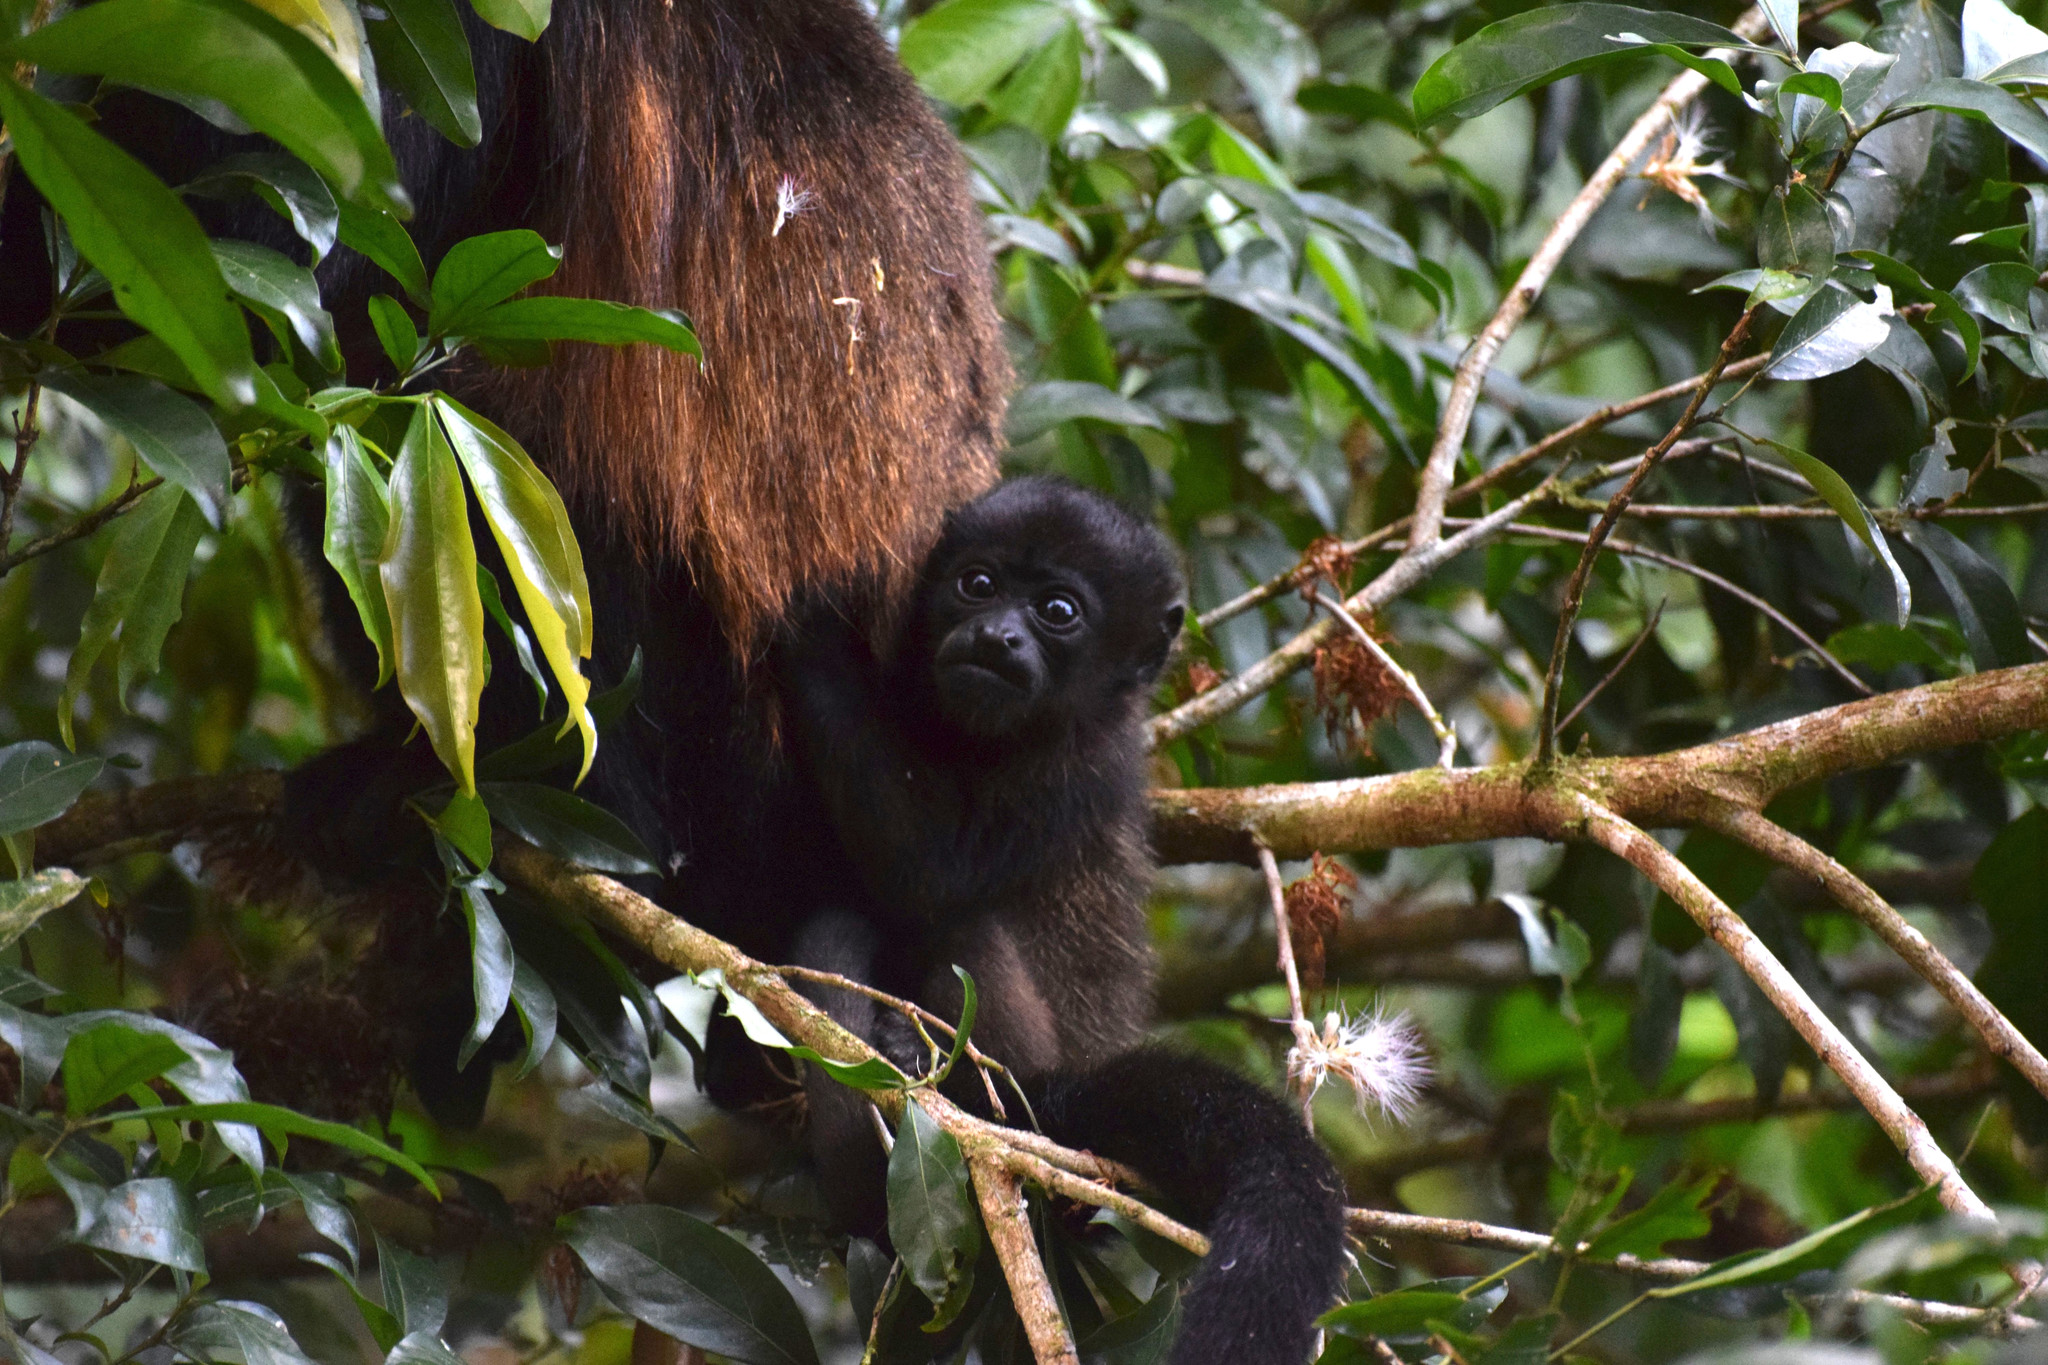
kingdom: Animalia
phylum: Chordata
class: Mammalia
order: Primates
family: Atelidae
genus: Alouatta
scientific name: Alouatta palliata
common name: Mantled howler
